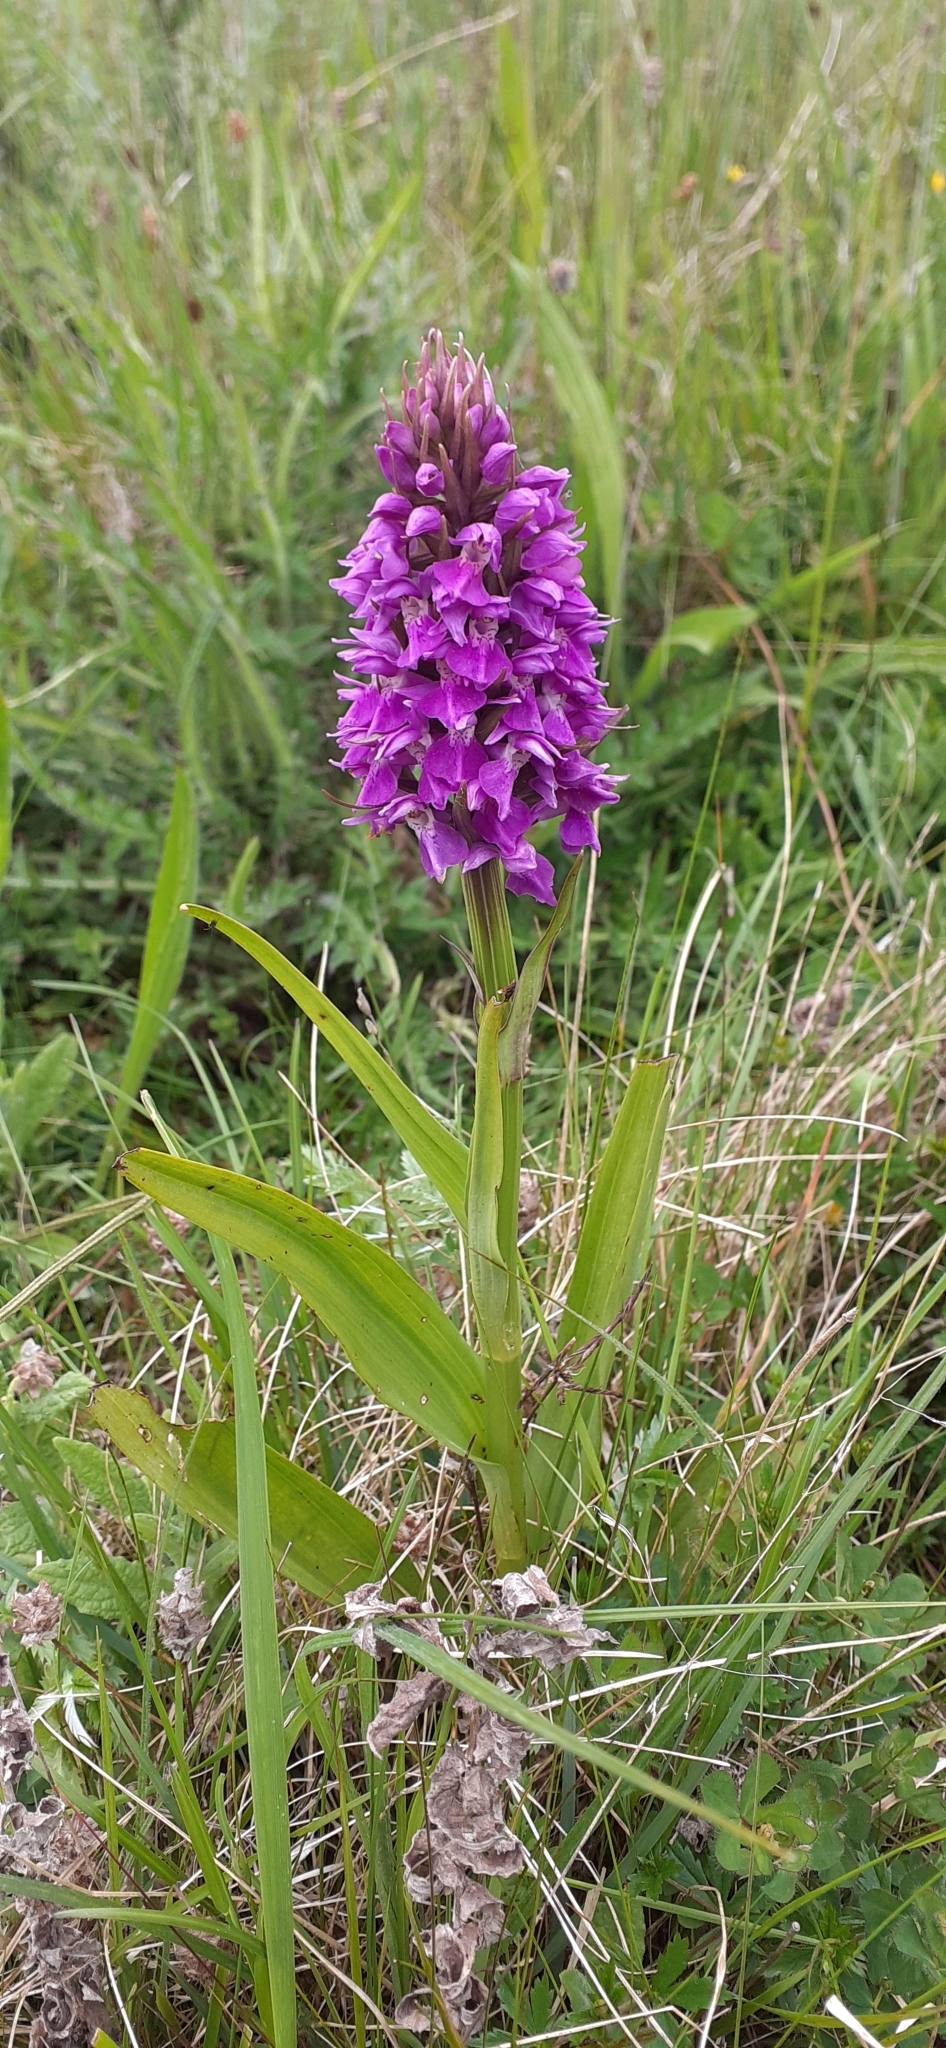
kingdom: Plantae
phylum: Tracheophyta
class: Liliopsida
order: Asparagales
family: Orchidaceae
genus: Dactylorhiza
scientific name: Dactylorhiza majalis
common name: Marsh orchid
